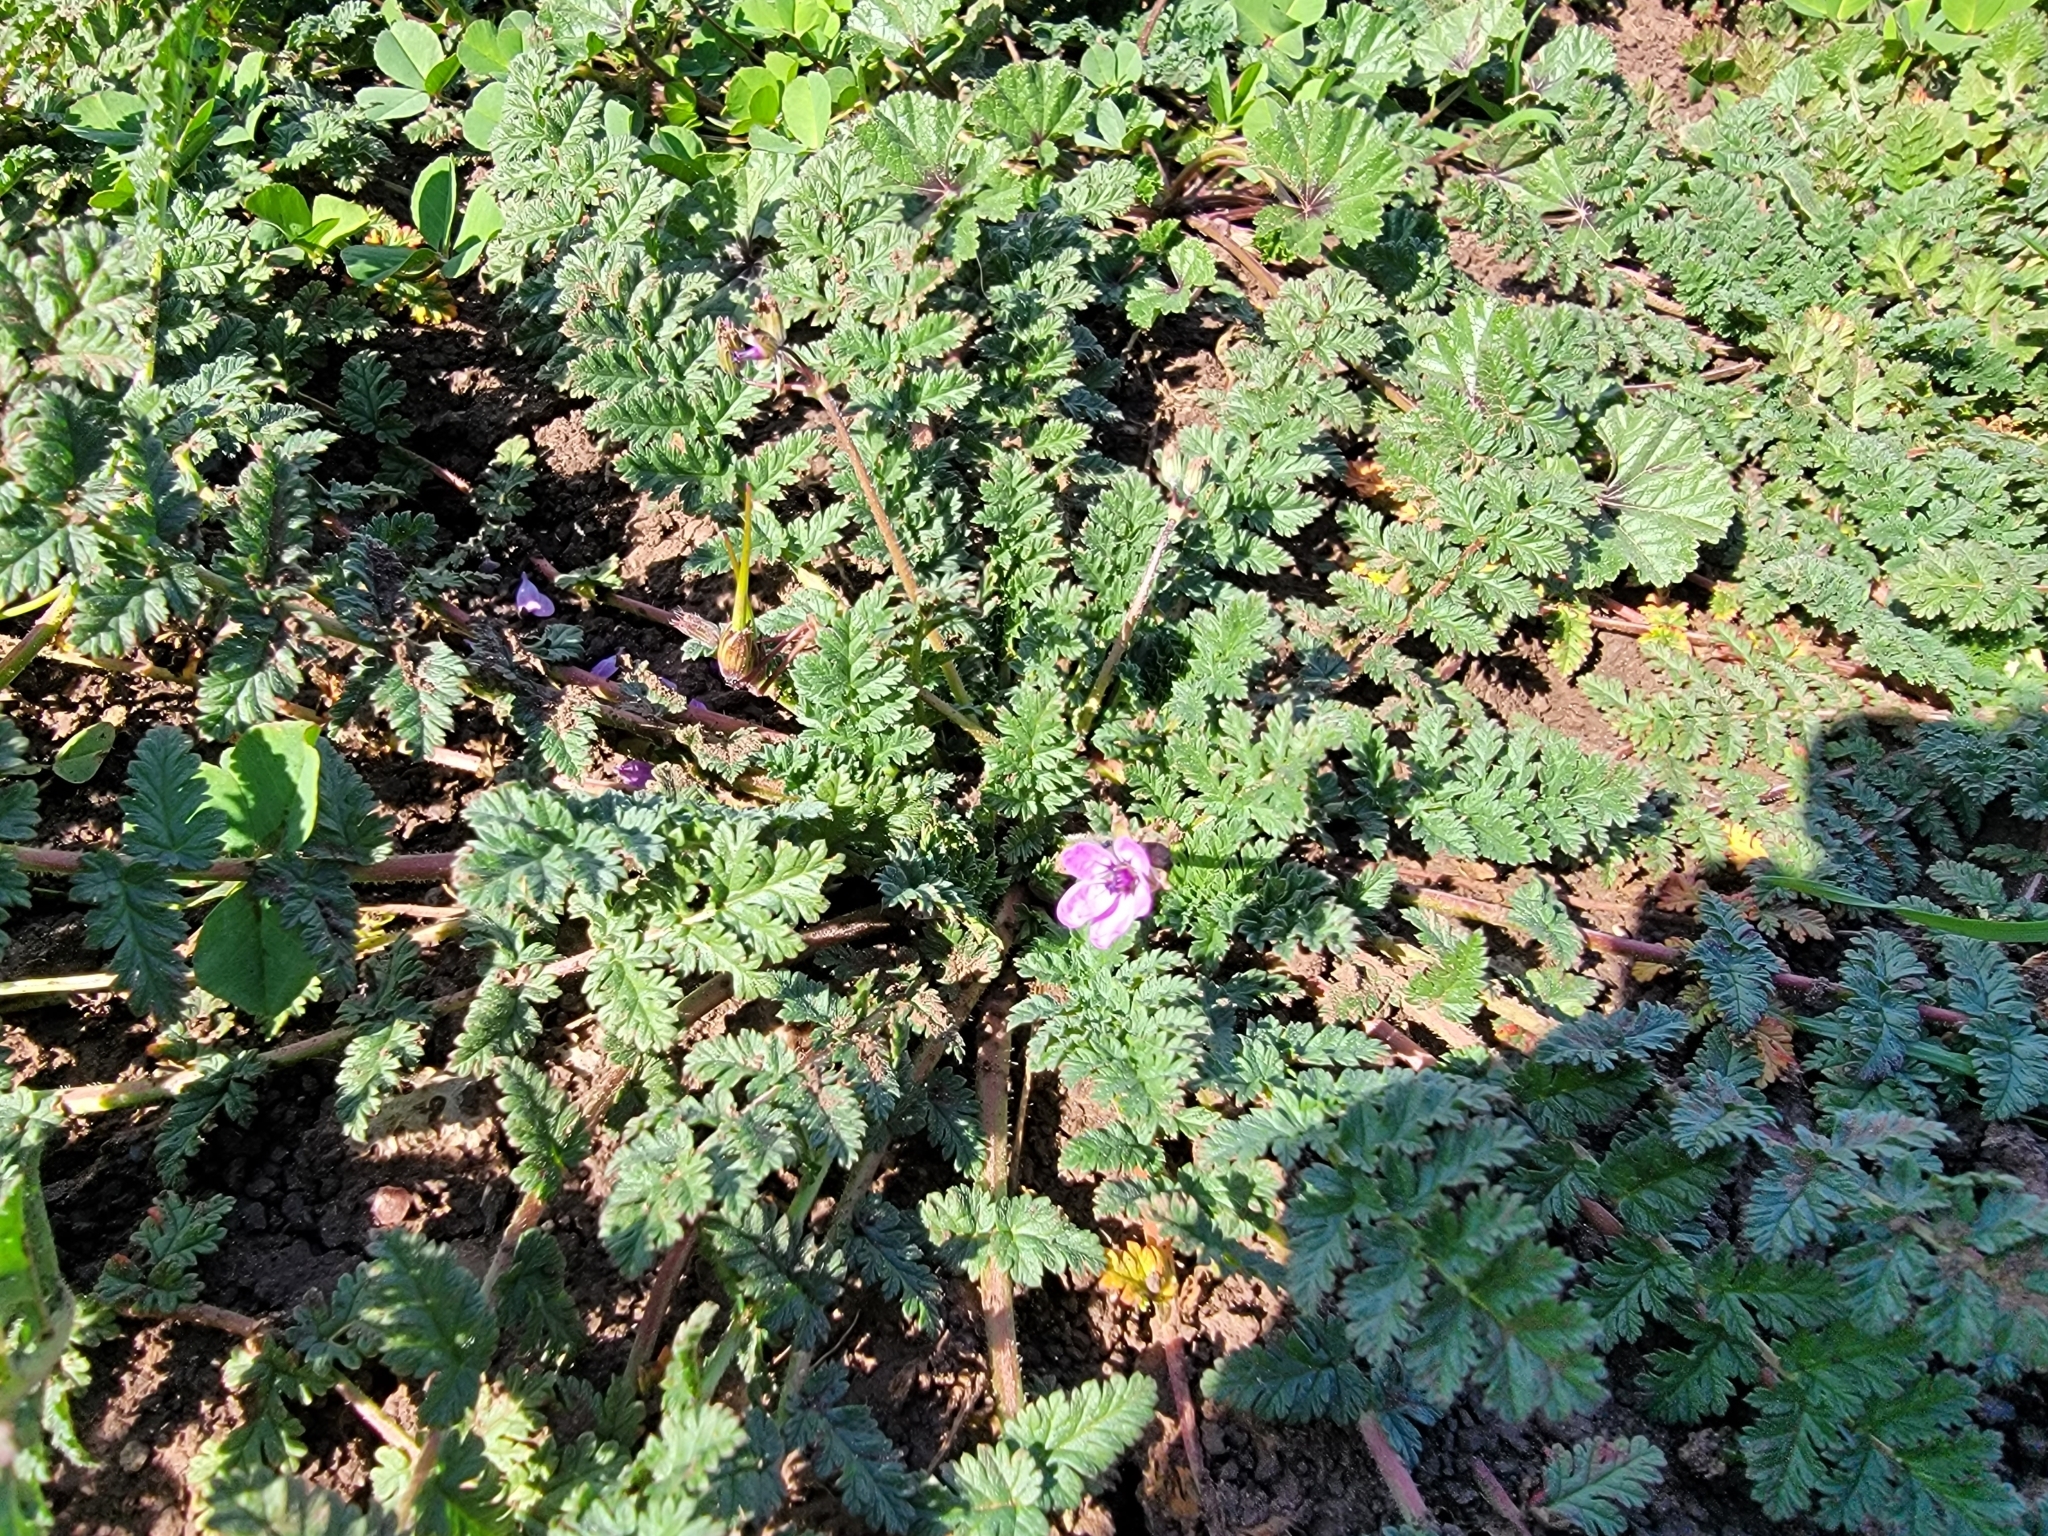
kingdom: Plantae
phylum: Tracheophyta
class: Magnoliopsida
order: Geraniales
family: Geraniaceae
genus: Erodium
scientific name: Erodium cicutarium
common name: Common stork's-bill
